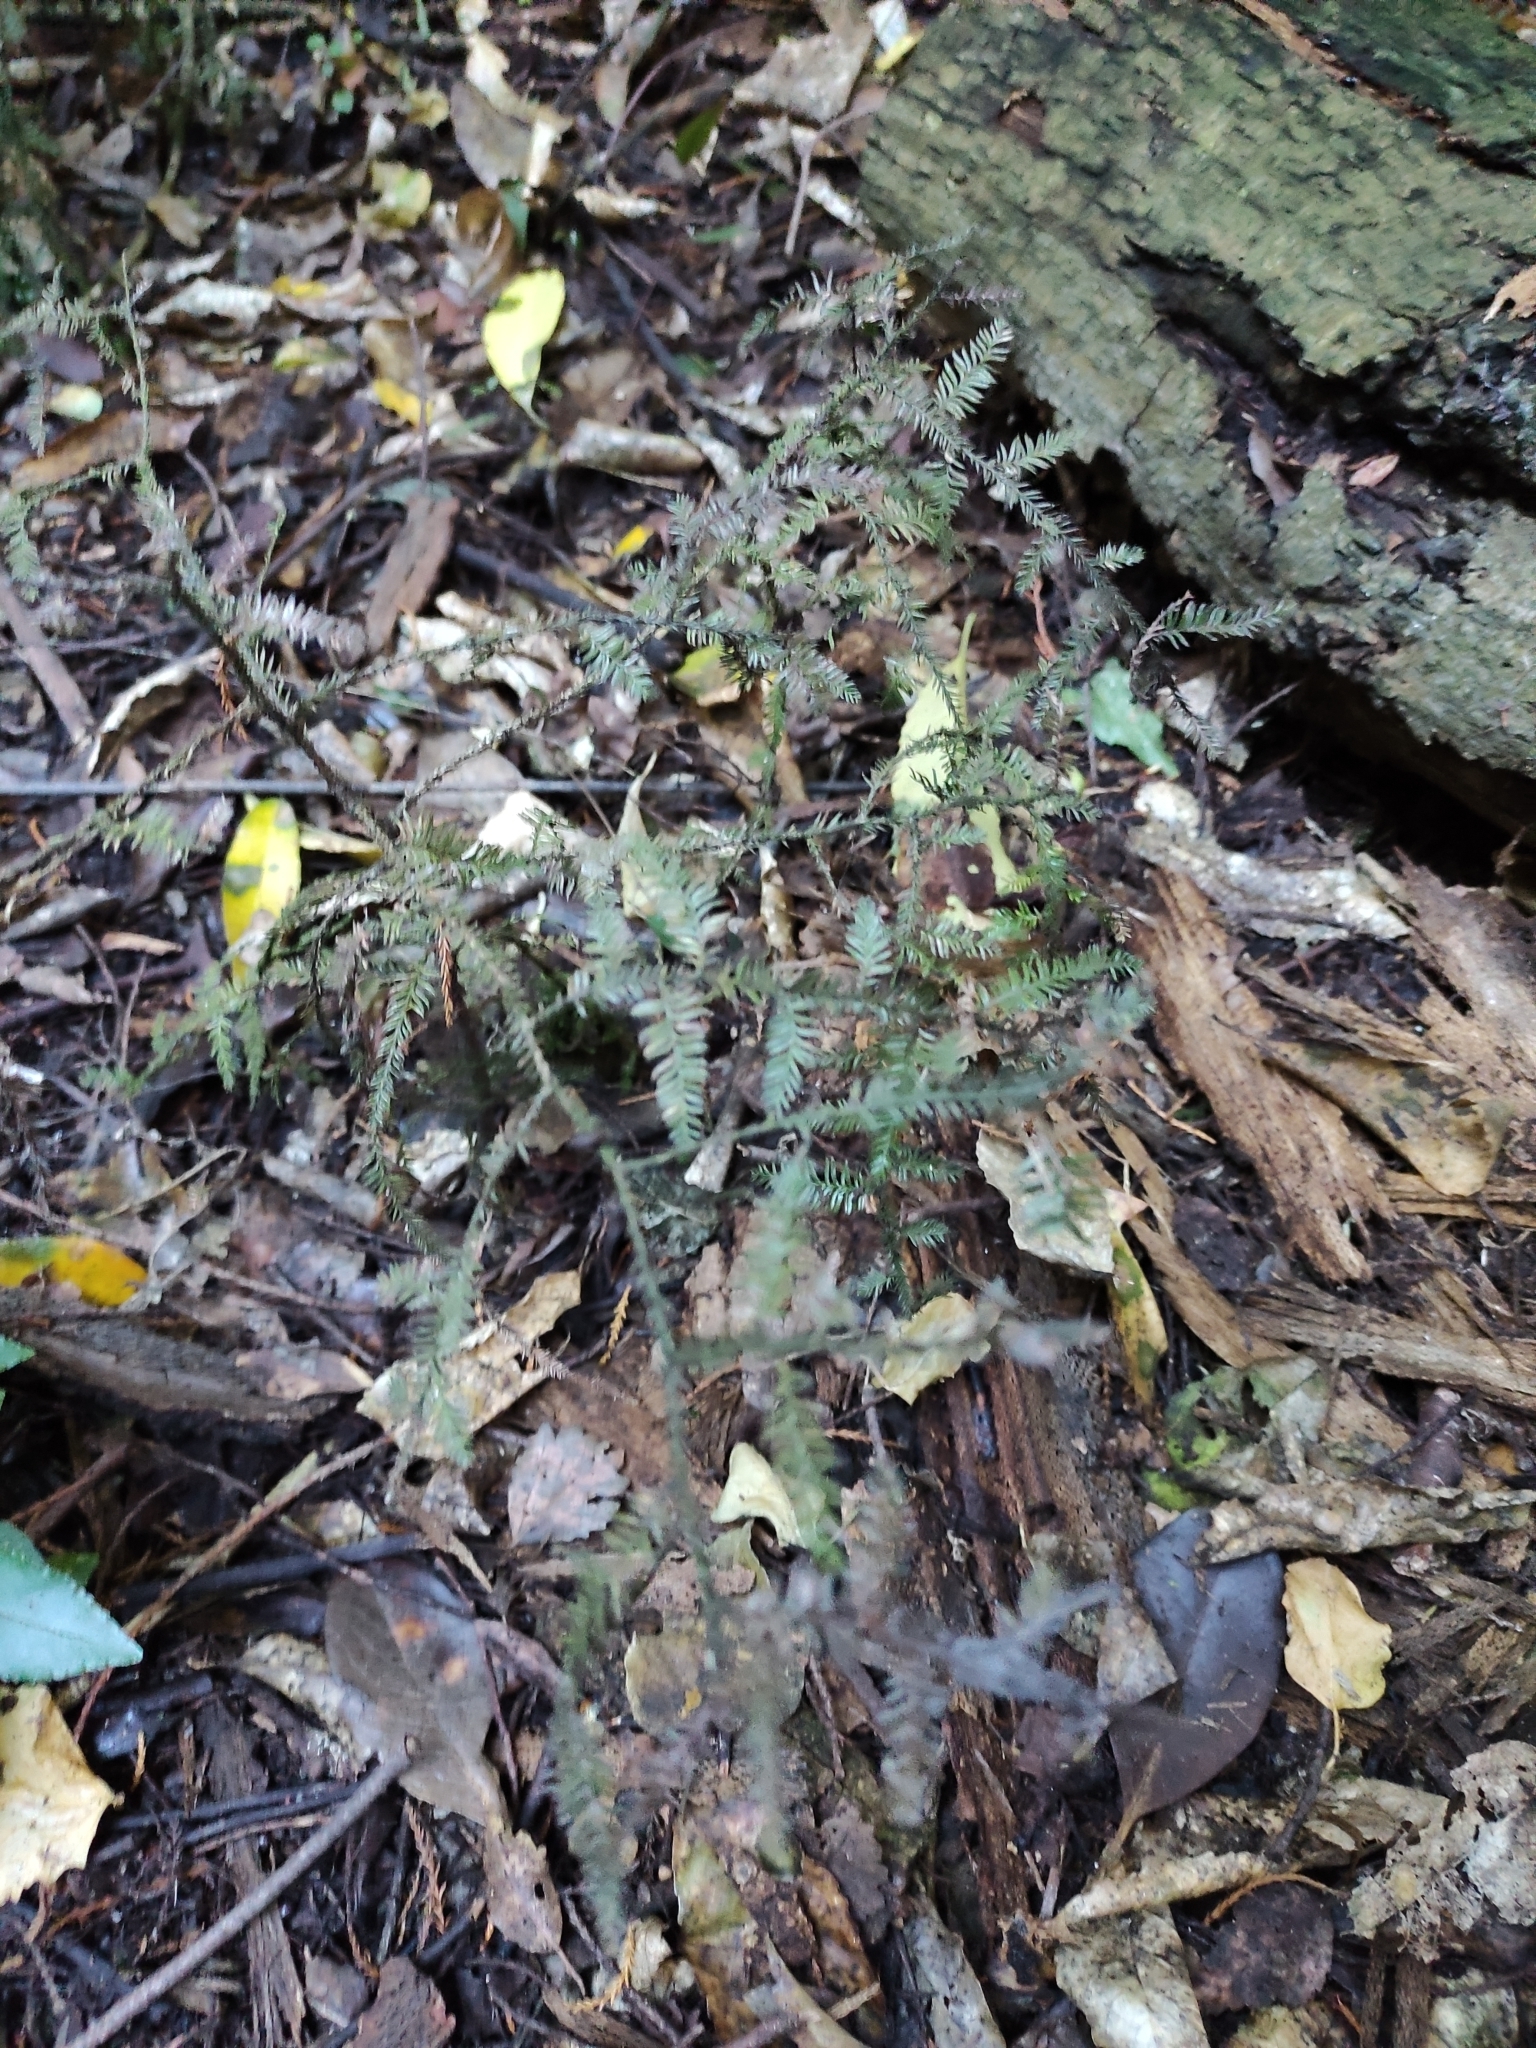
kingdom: Plantae
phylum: Tracheophyta
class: Pinopsida
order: Pinales
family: Podocarpaceae
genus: Dacrycarpus
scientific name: Dacrycarpus dacrydioides
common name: White pine
